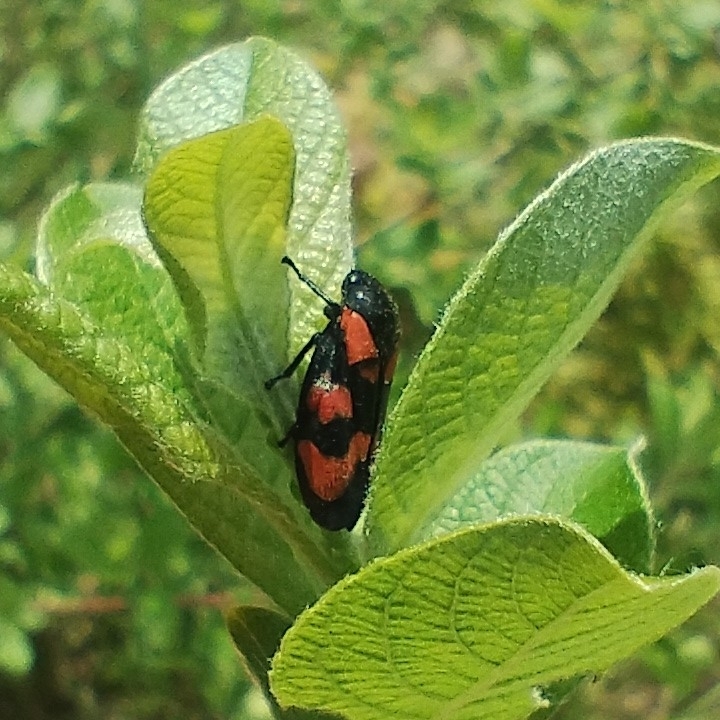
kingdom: Animalia
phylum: Arthropoda
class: Insecta
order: Hemiptera
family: Cercopidae
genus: Cercopis
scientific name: Cercopis vulnerata
